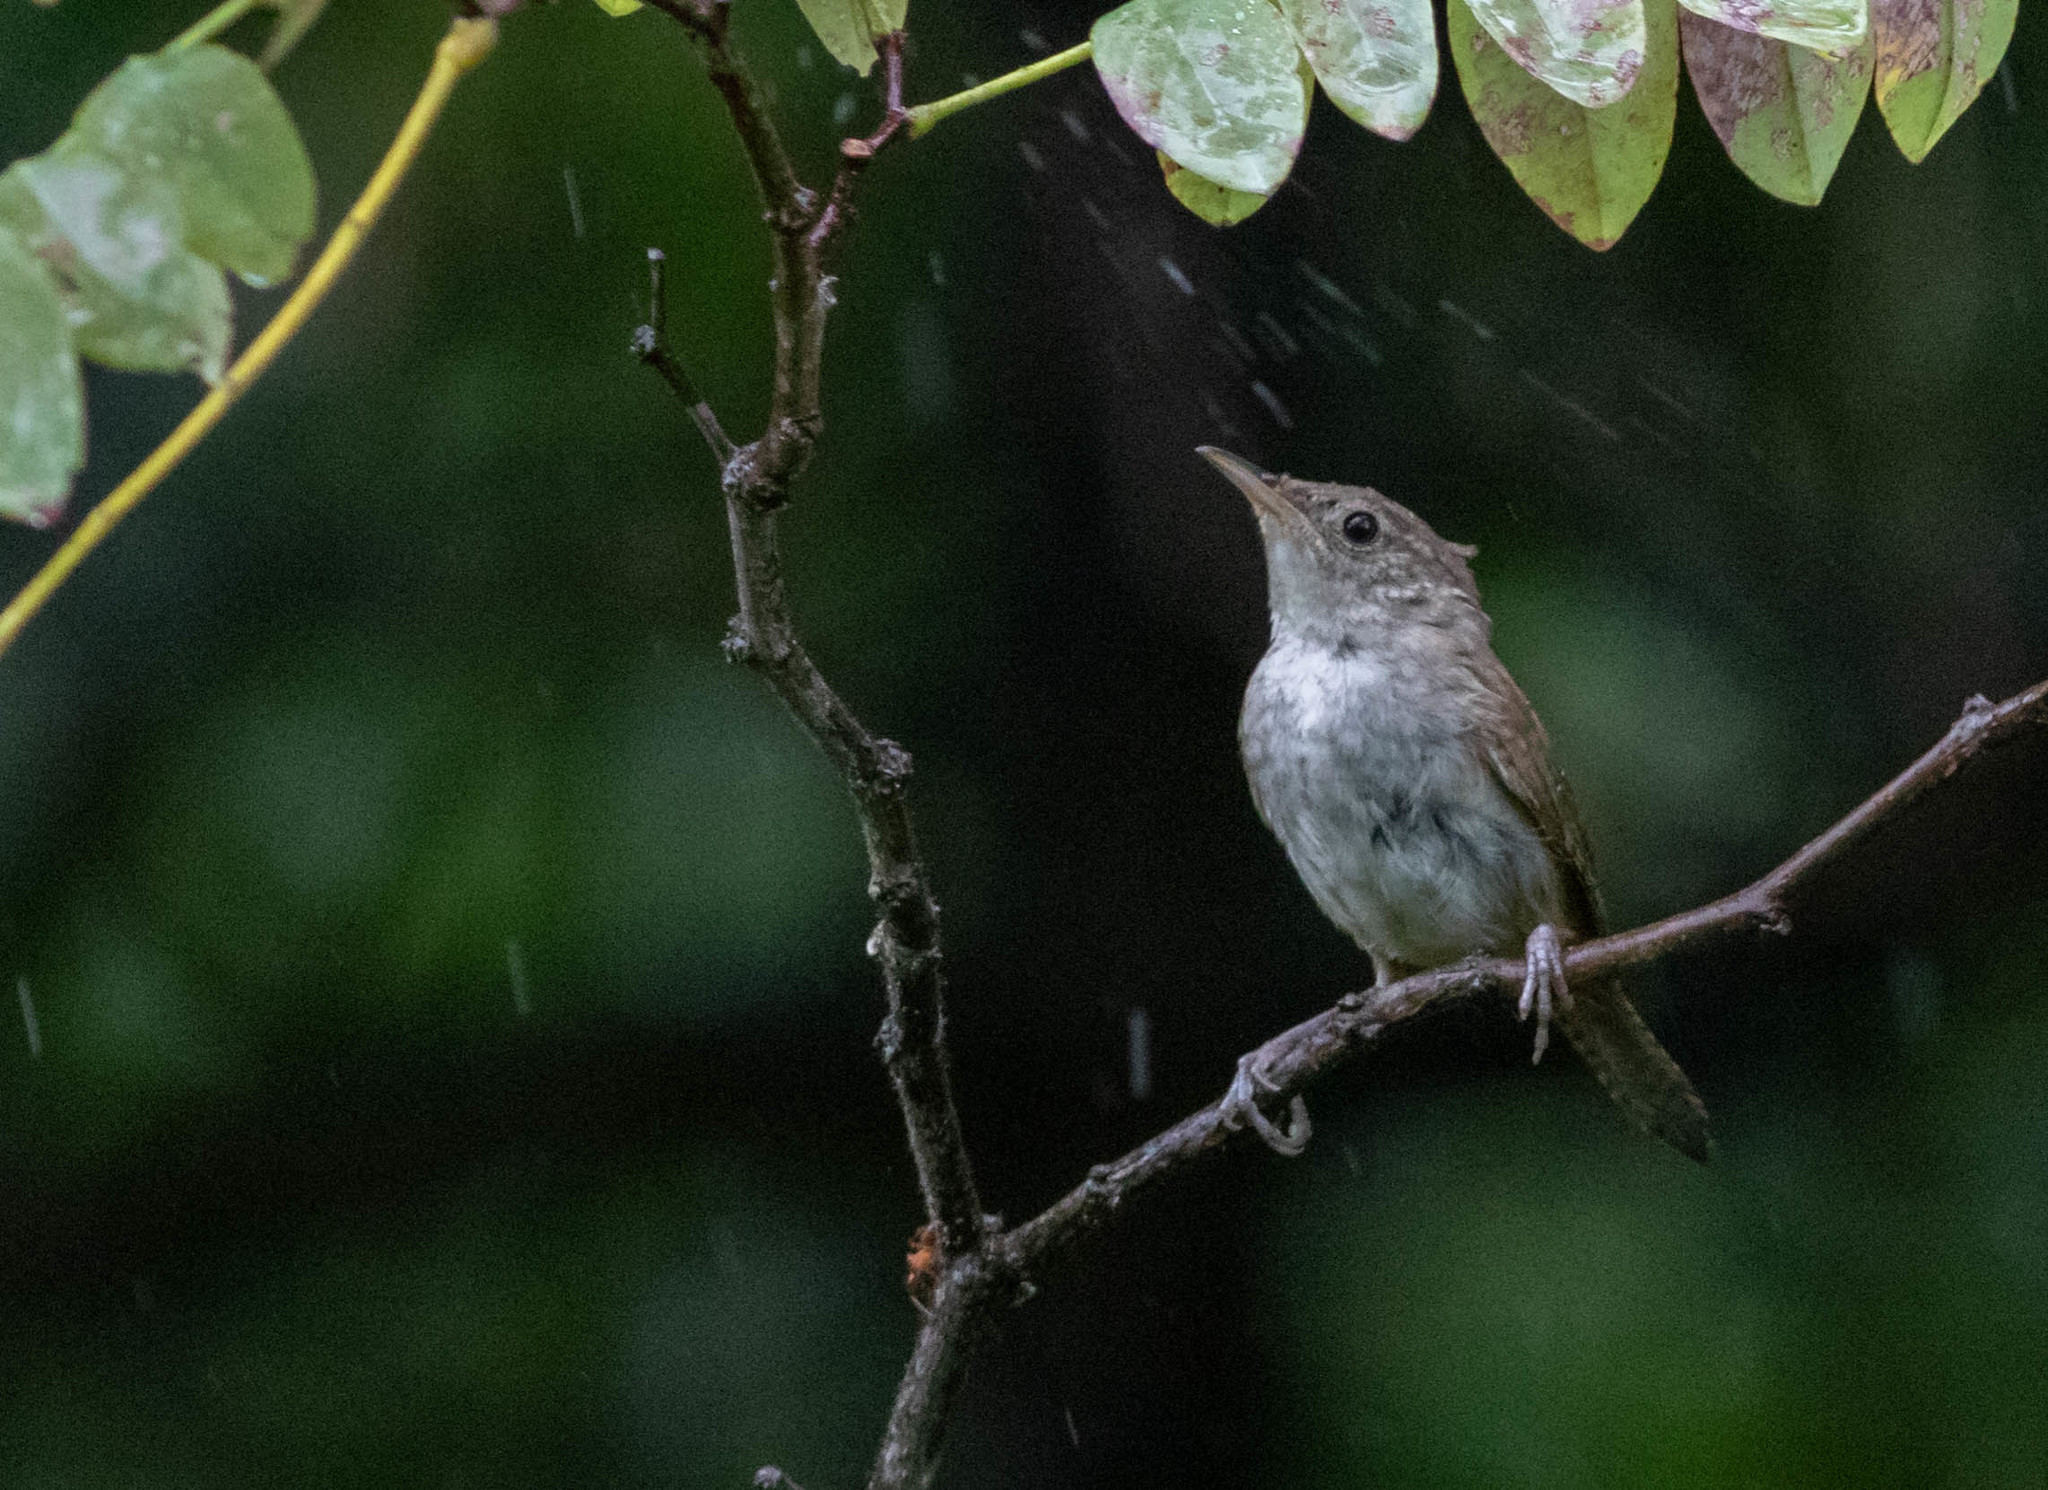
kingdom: Animalia
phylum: Chordata
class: Aves
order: Passeriformes
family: Troglodytidae
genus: Troglodytes
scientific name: Troglodytes aedon
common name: House wren
